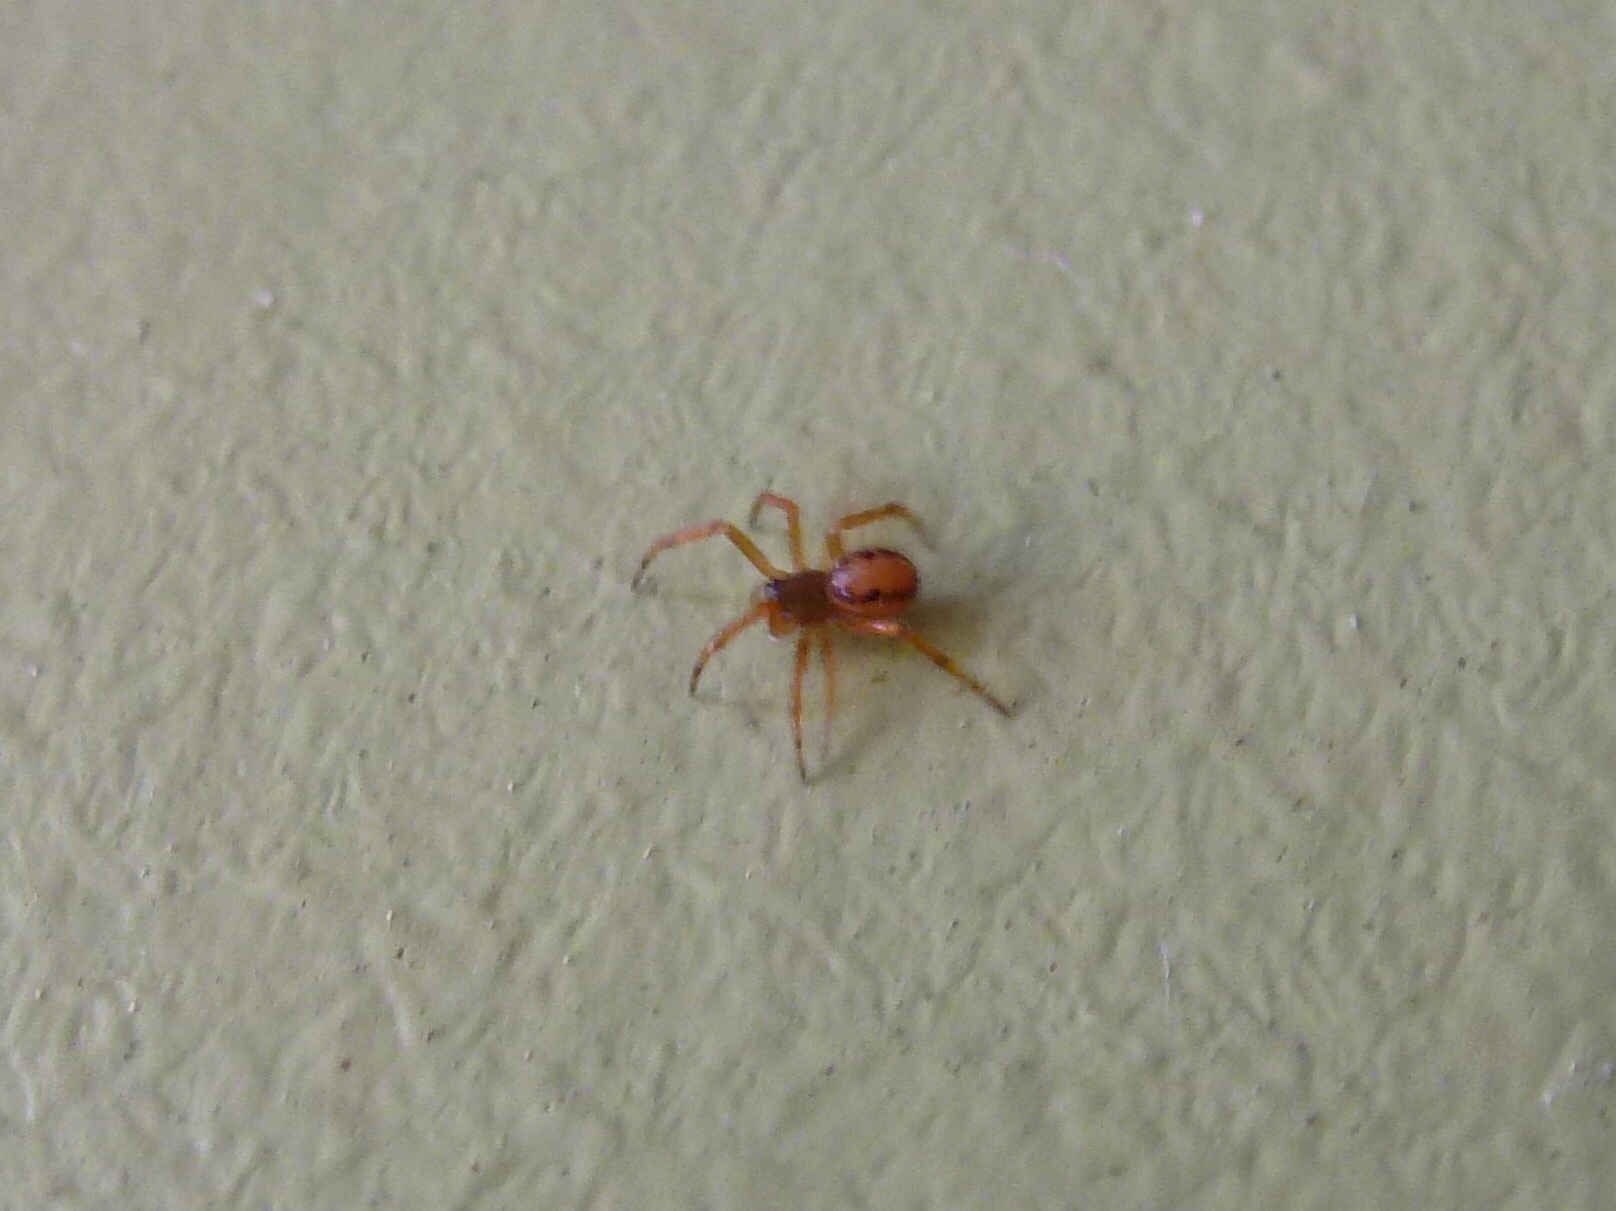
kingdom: Animalia
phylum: Arthropoda
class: Arachnida
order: Araneae
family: Theridiidae
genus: Steatoda
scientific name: Steatoda nobilis
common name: Cobweb weaver
